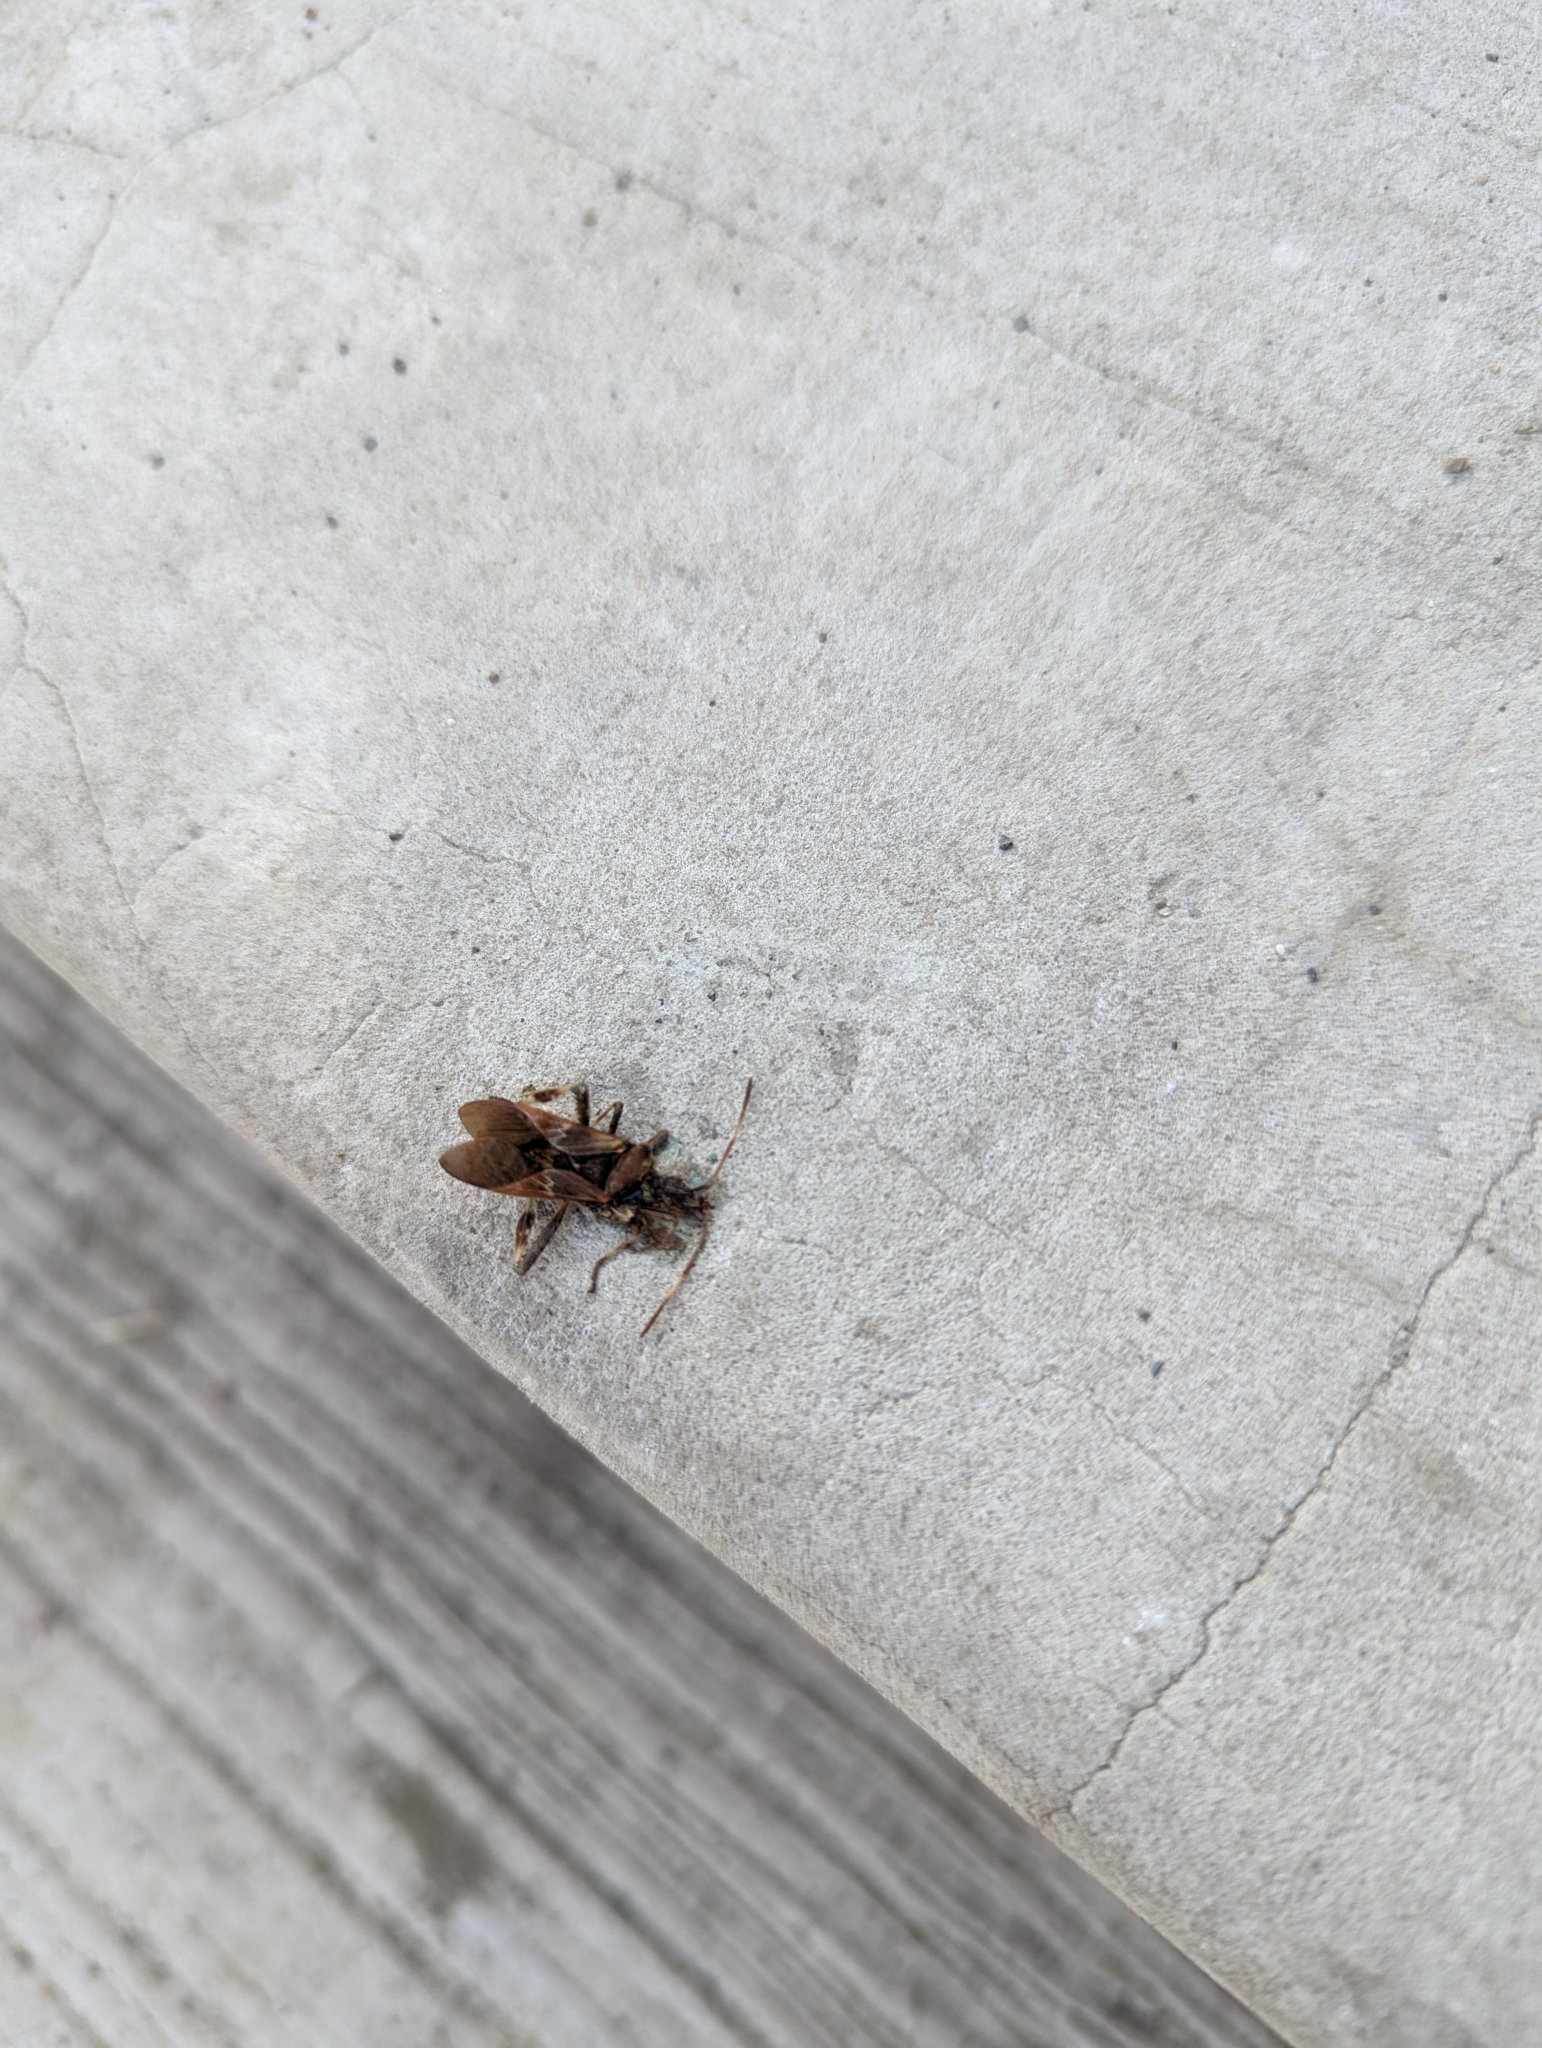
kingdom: Animalia
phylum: Arthropoda
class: Insecta
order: Hemiptera
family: Coreidae
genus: Leptoglossus
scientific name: Leptoglossus occidentalis
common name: Western conifer-seed bug
